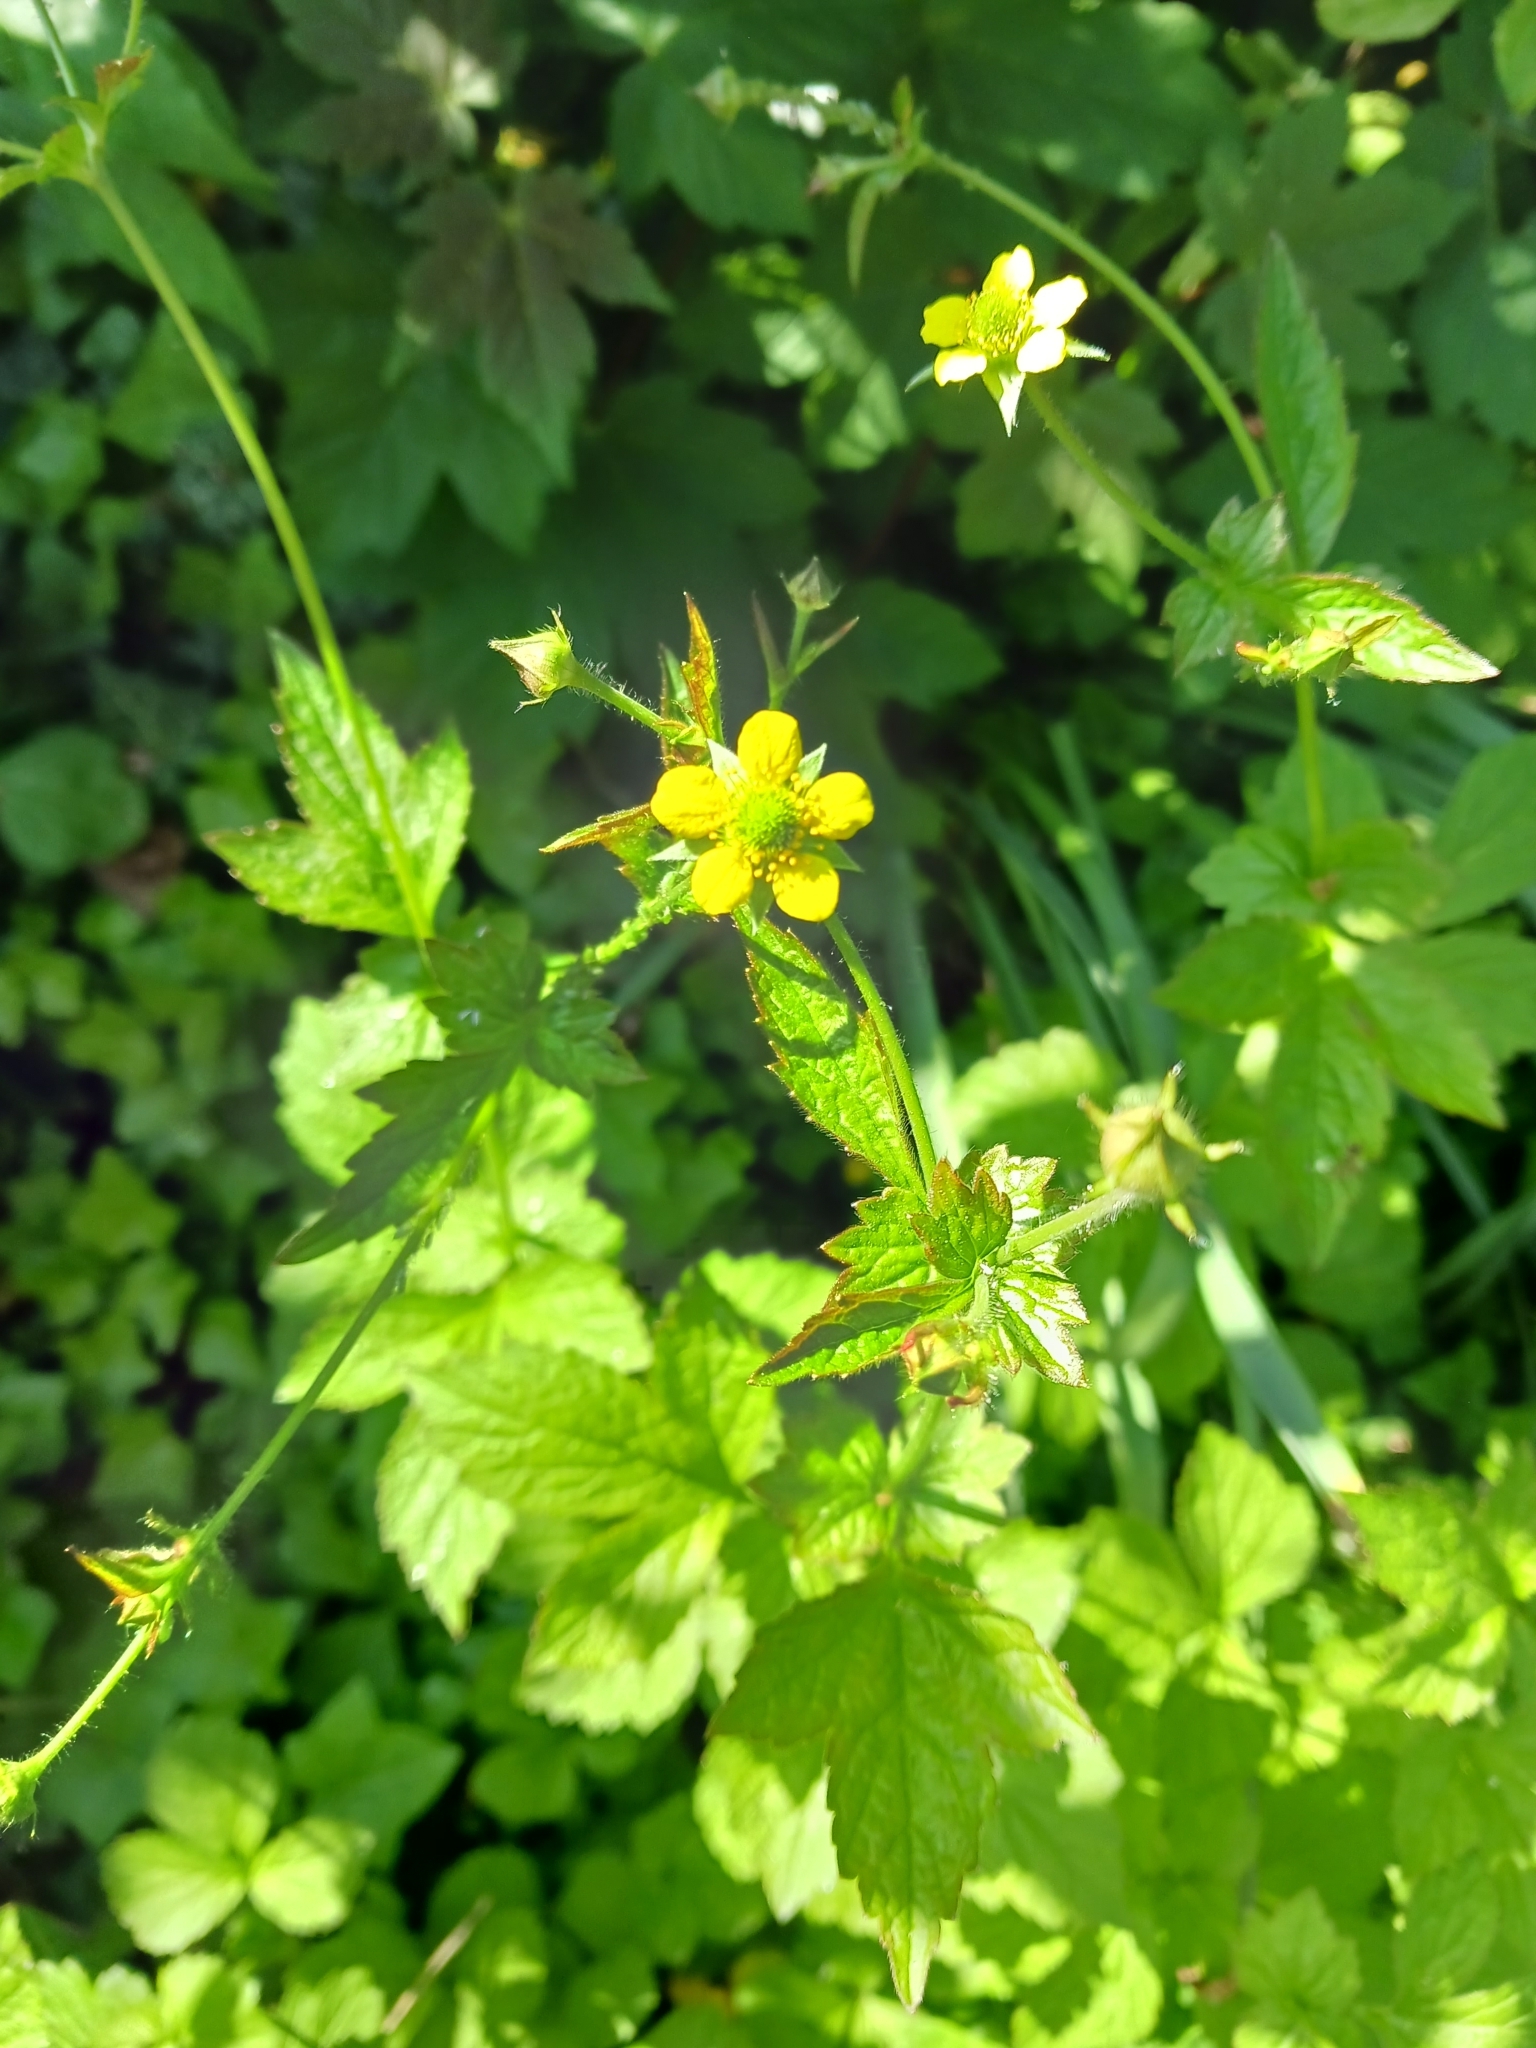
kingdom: Plantae
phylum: Tracheophyta
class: Magnoliopsida
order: Rosales
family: Rosaceae
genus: Geum
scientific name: Geum urbanum
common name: Wood avens
